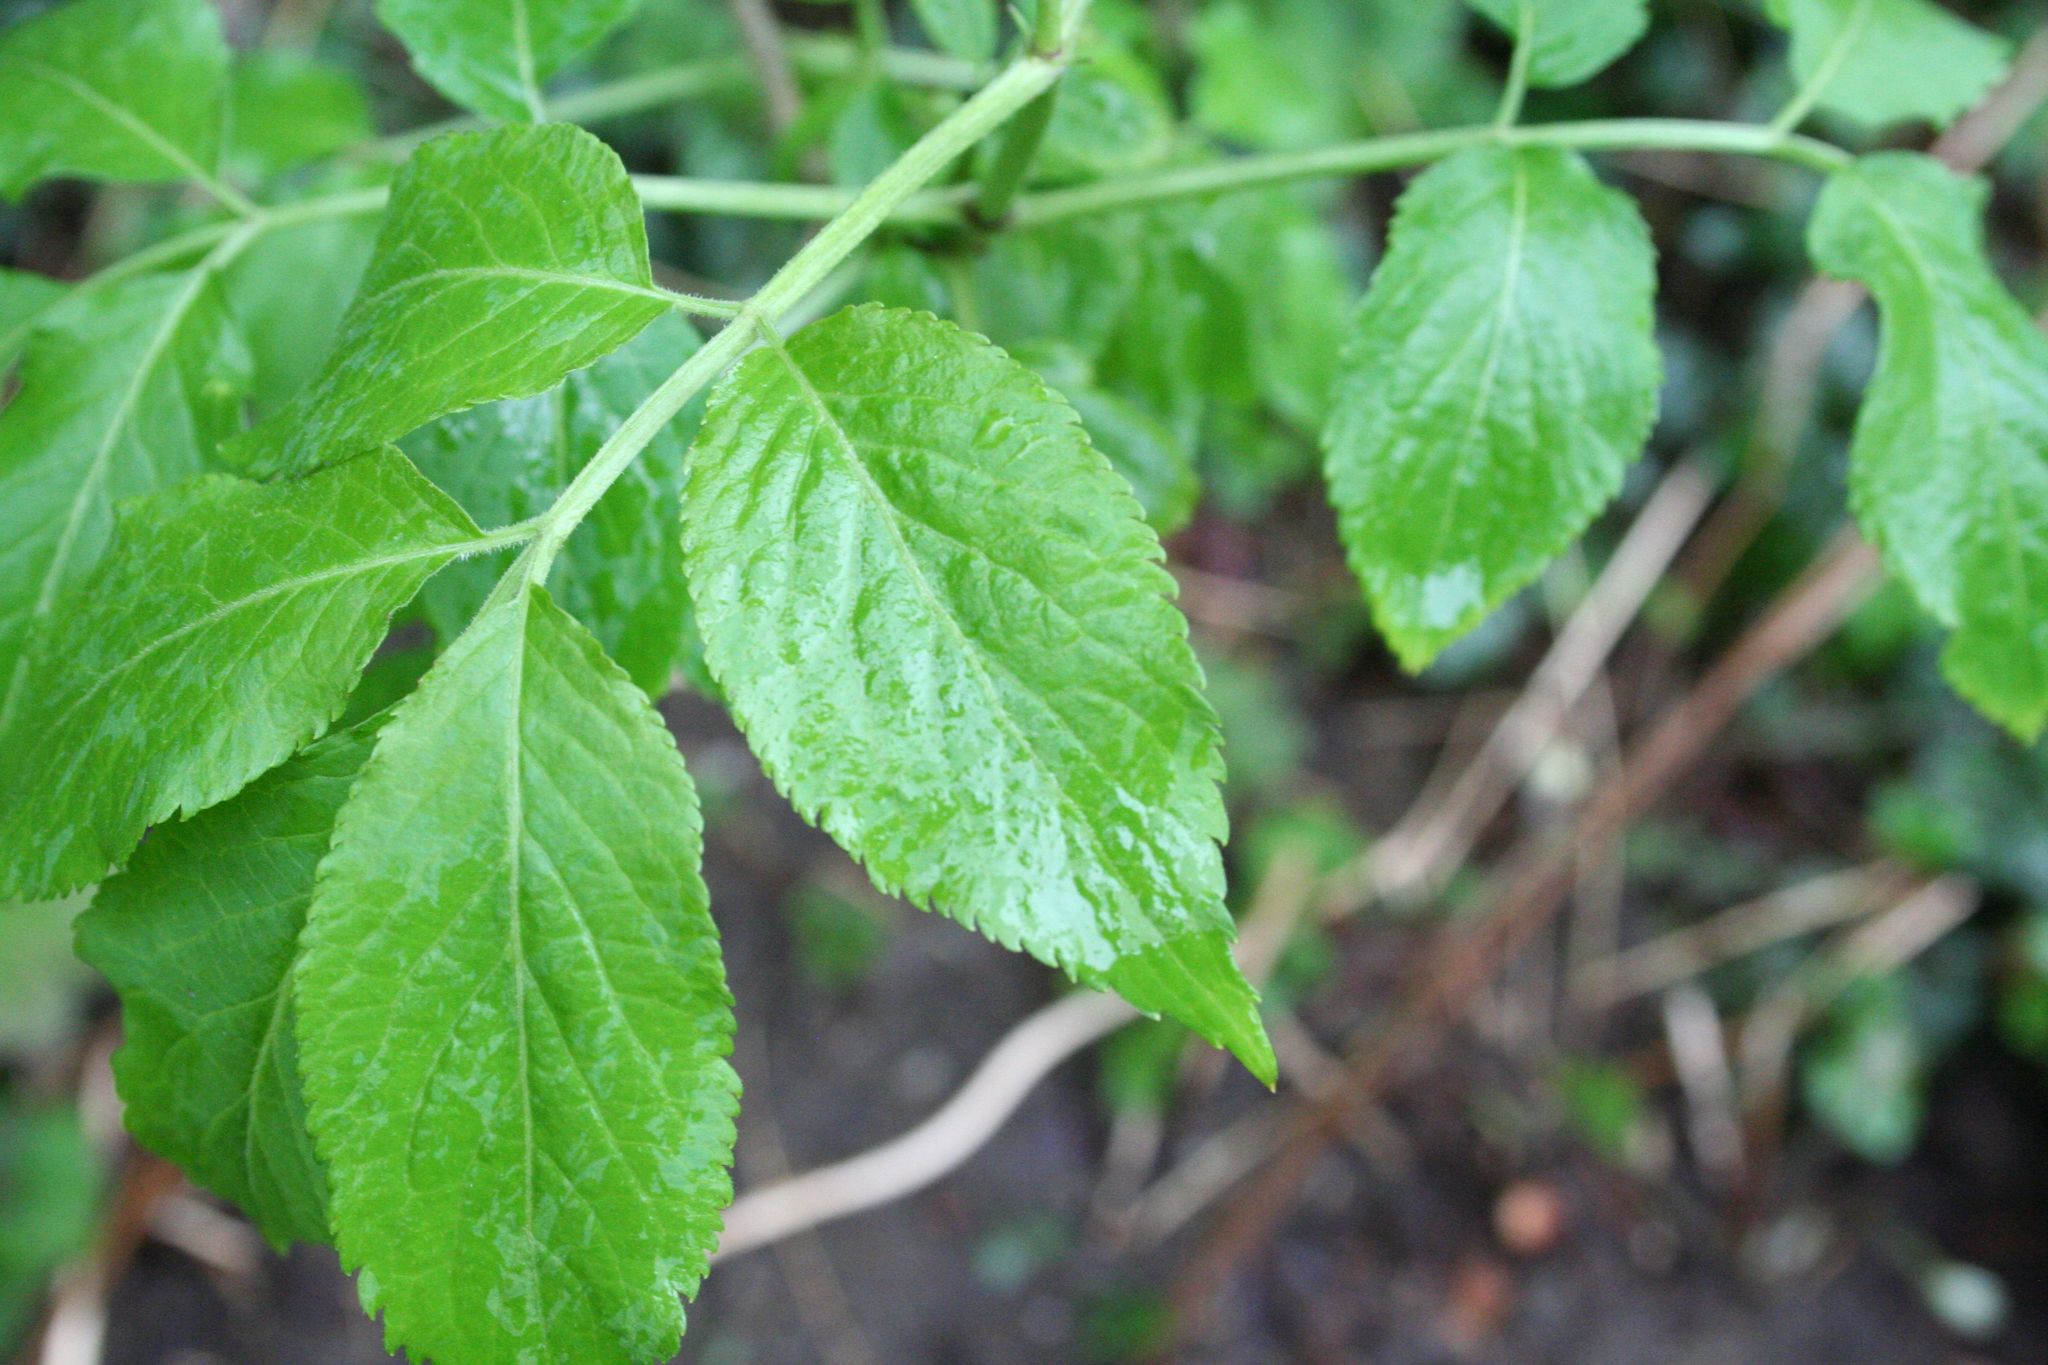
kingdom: Plantae
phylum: Tracheophyta
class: Magnoliopsida
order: Dipsacales
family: Viburnaceae
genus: Sambucus
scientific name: Sambucus nigra
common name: Elder
